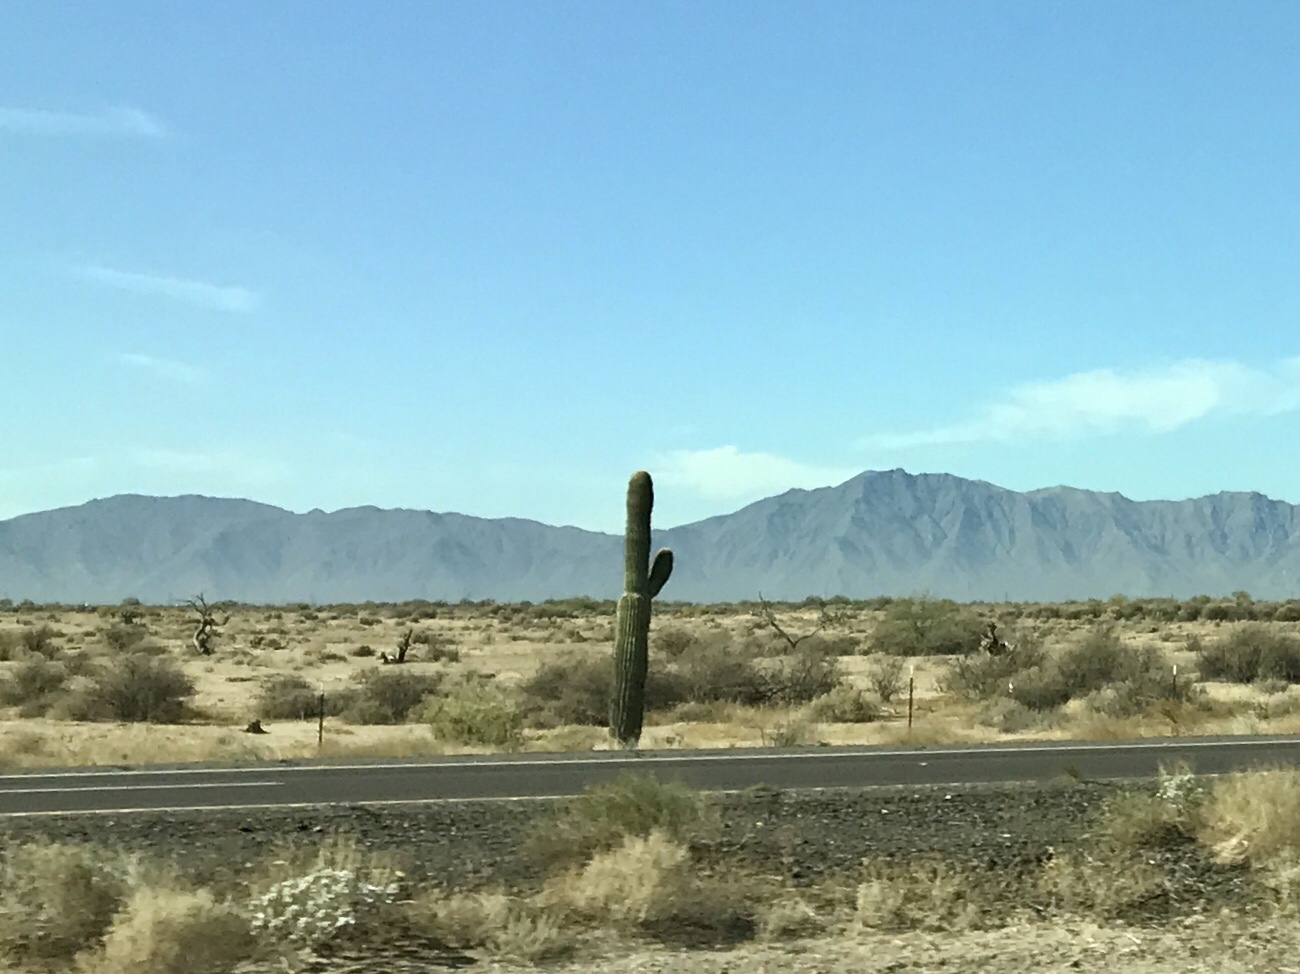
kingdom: Plantae
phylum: Tracheophyta
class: Magnoliopsida
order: Caryophyllales
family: Cactaceae
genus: Carnegiea
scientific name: Carnegiea gigantea
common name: Saguaro
